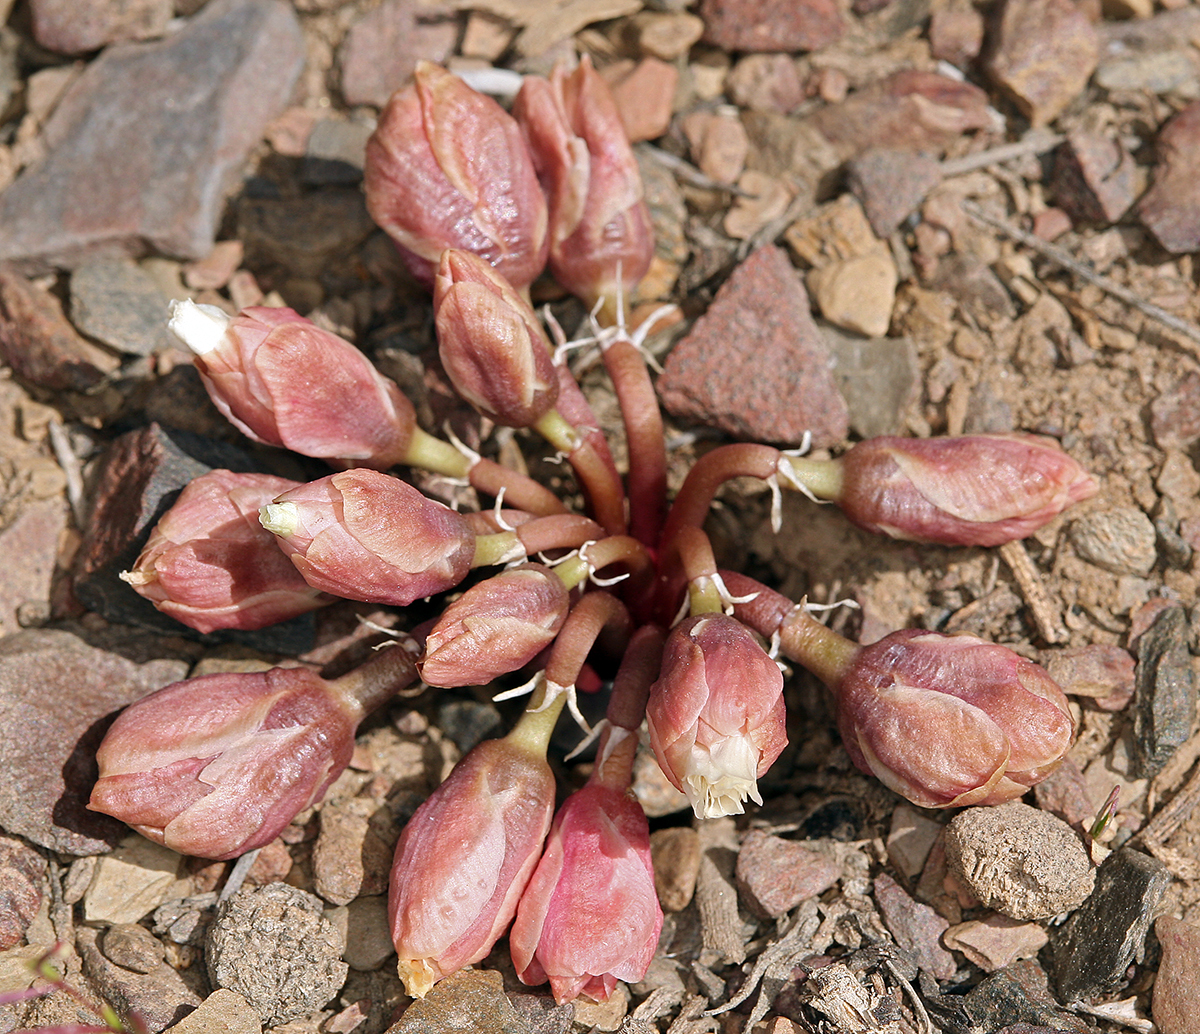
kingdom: Plantae
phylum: Tracheophyta
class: Magnoliopsida
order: Caryophyllales
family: Montiaceae
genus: Lewisia
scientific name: Lewisia rediviva
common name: Bitter-root
